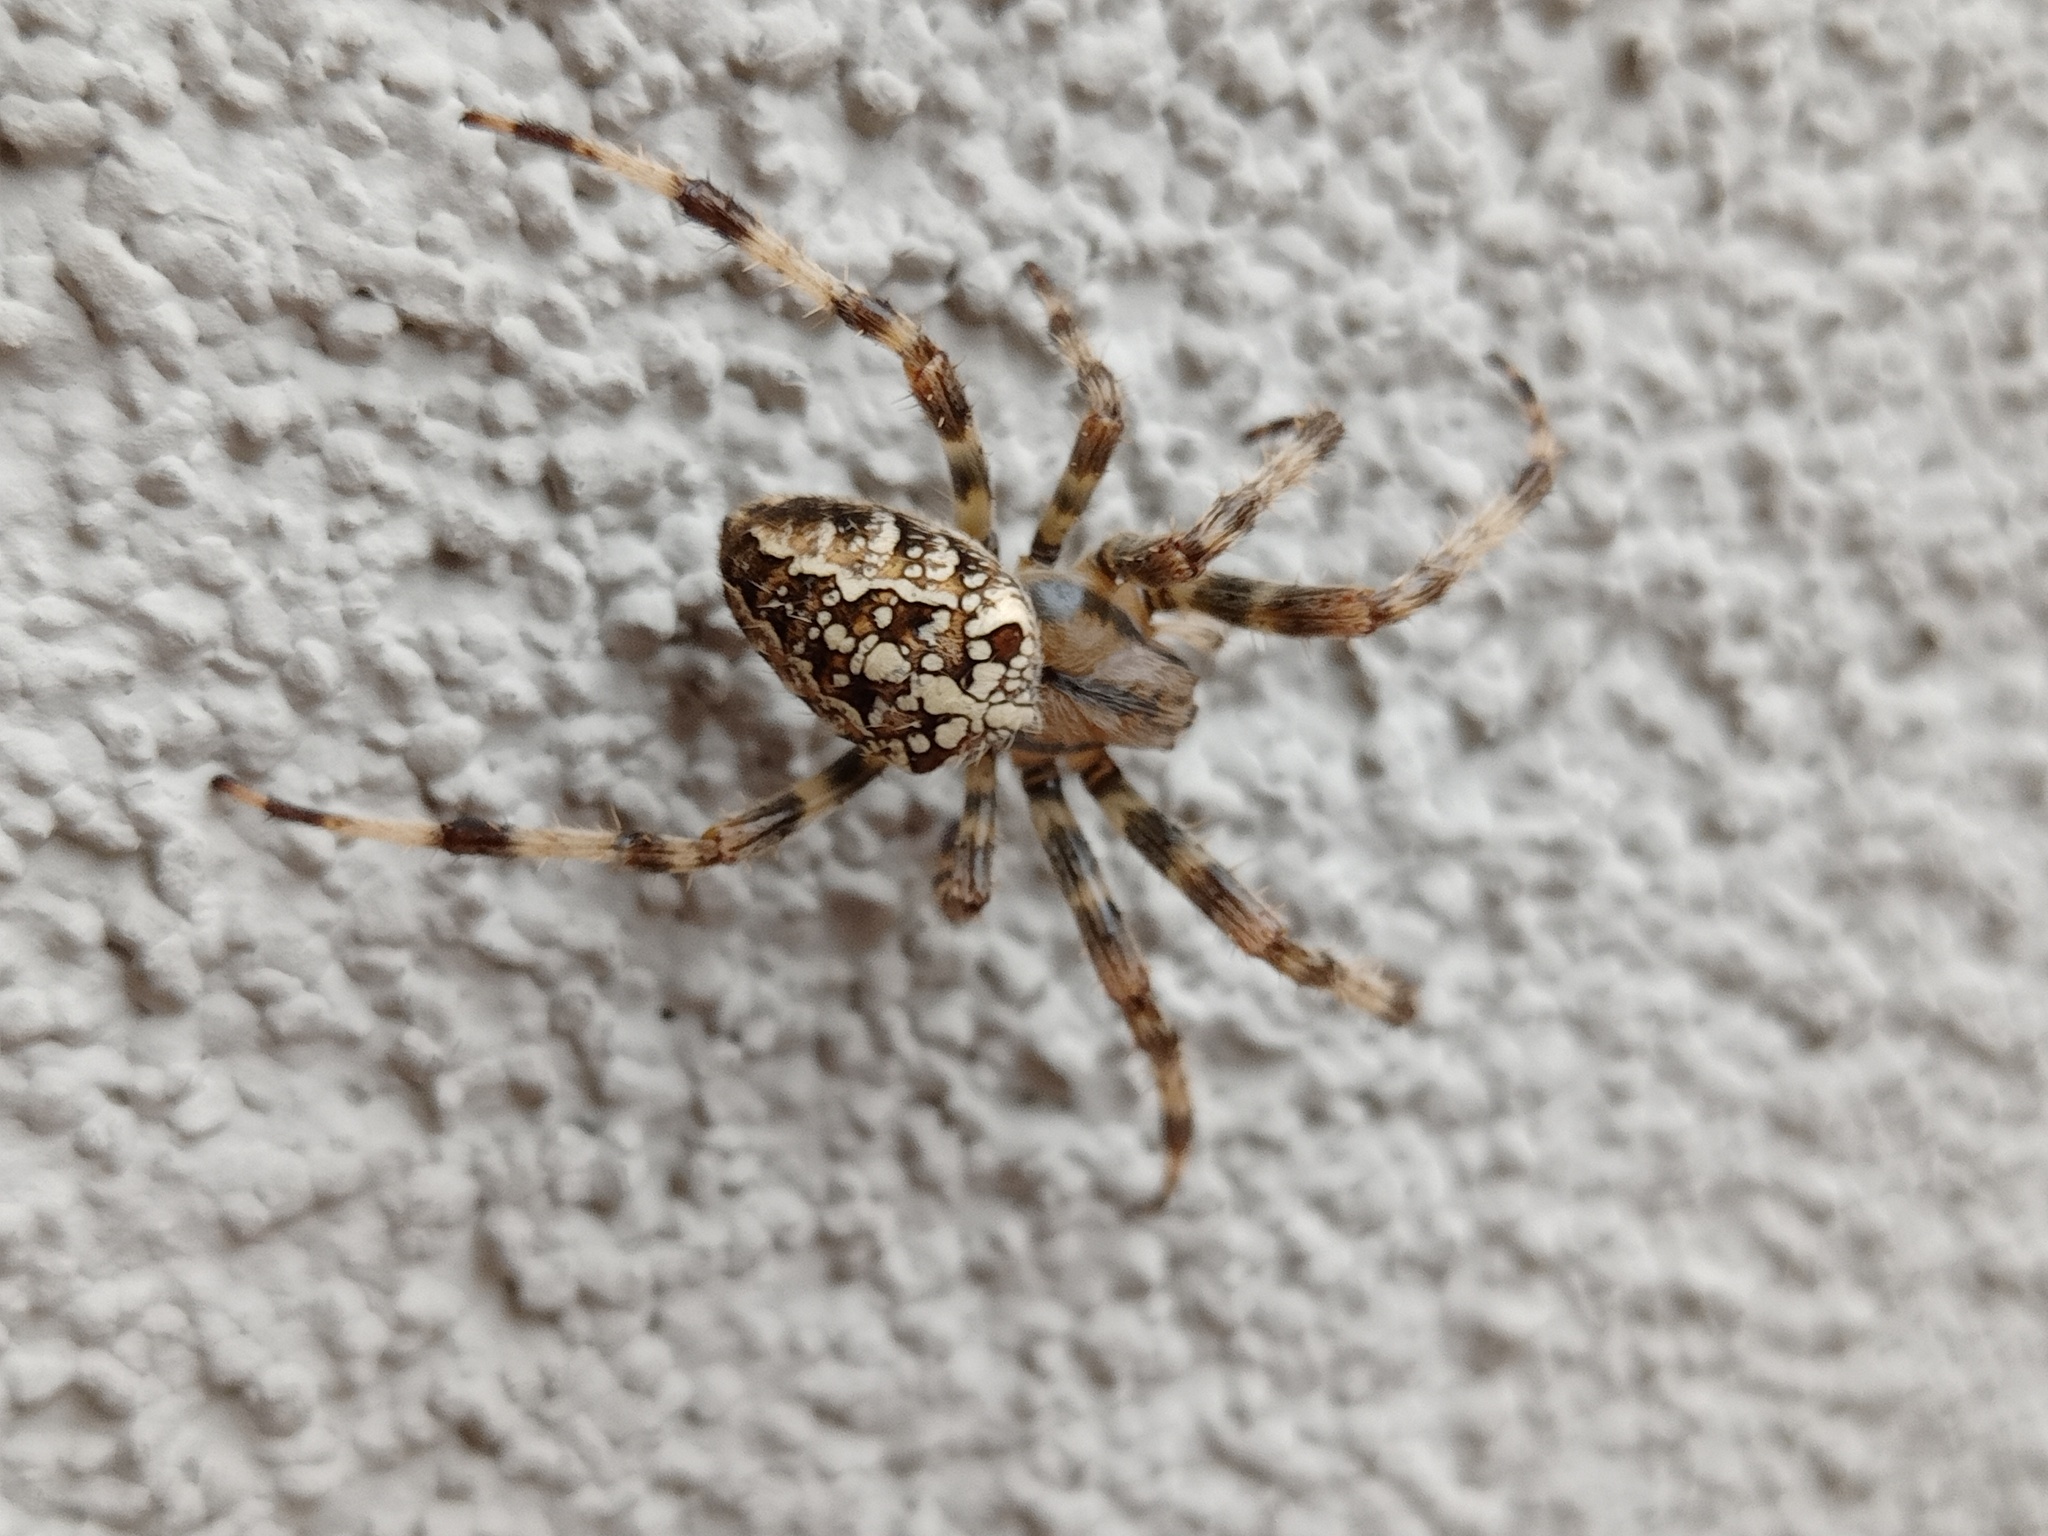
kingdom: Animalia
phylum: Arthropoda
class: Arachnida
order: Araneae
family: Araneidae
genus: Araneus
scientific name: Araneus diadematus
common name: Cross orbweaver
